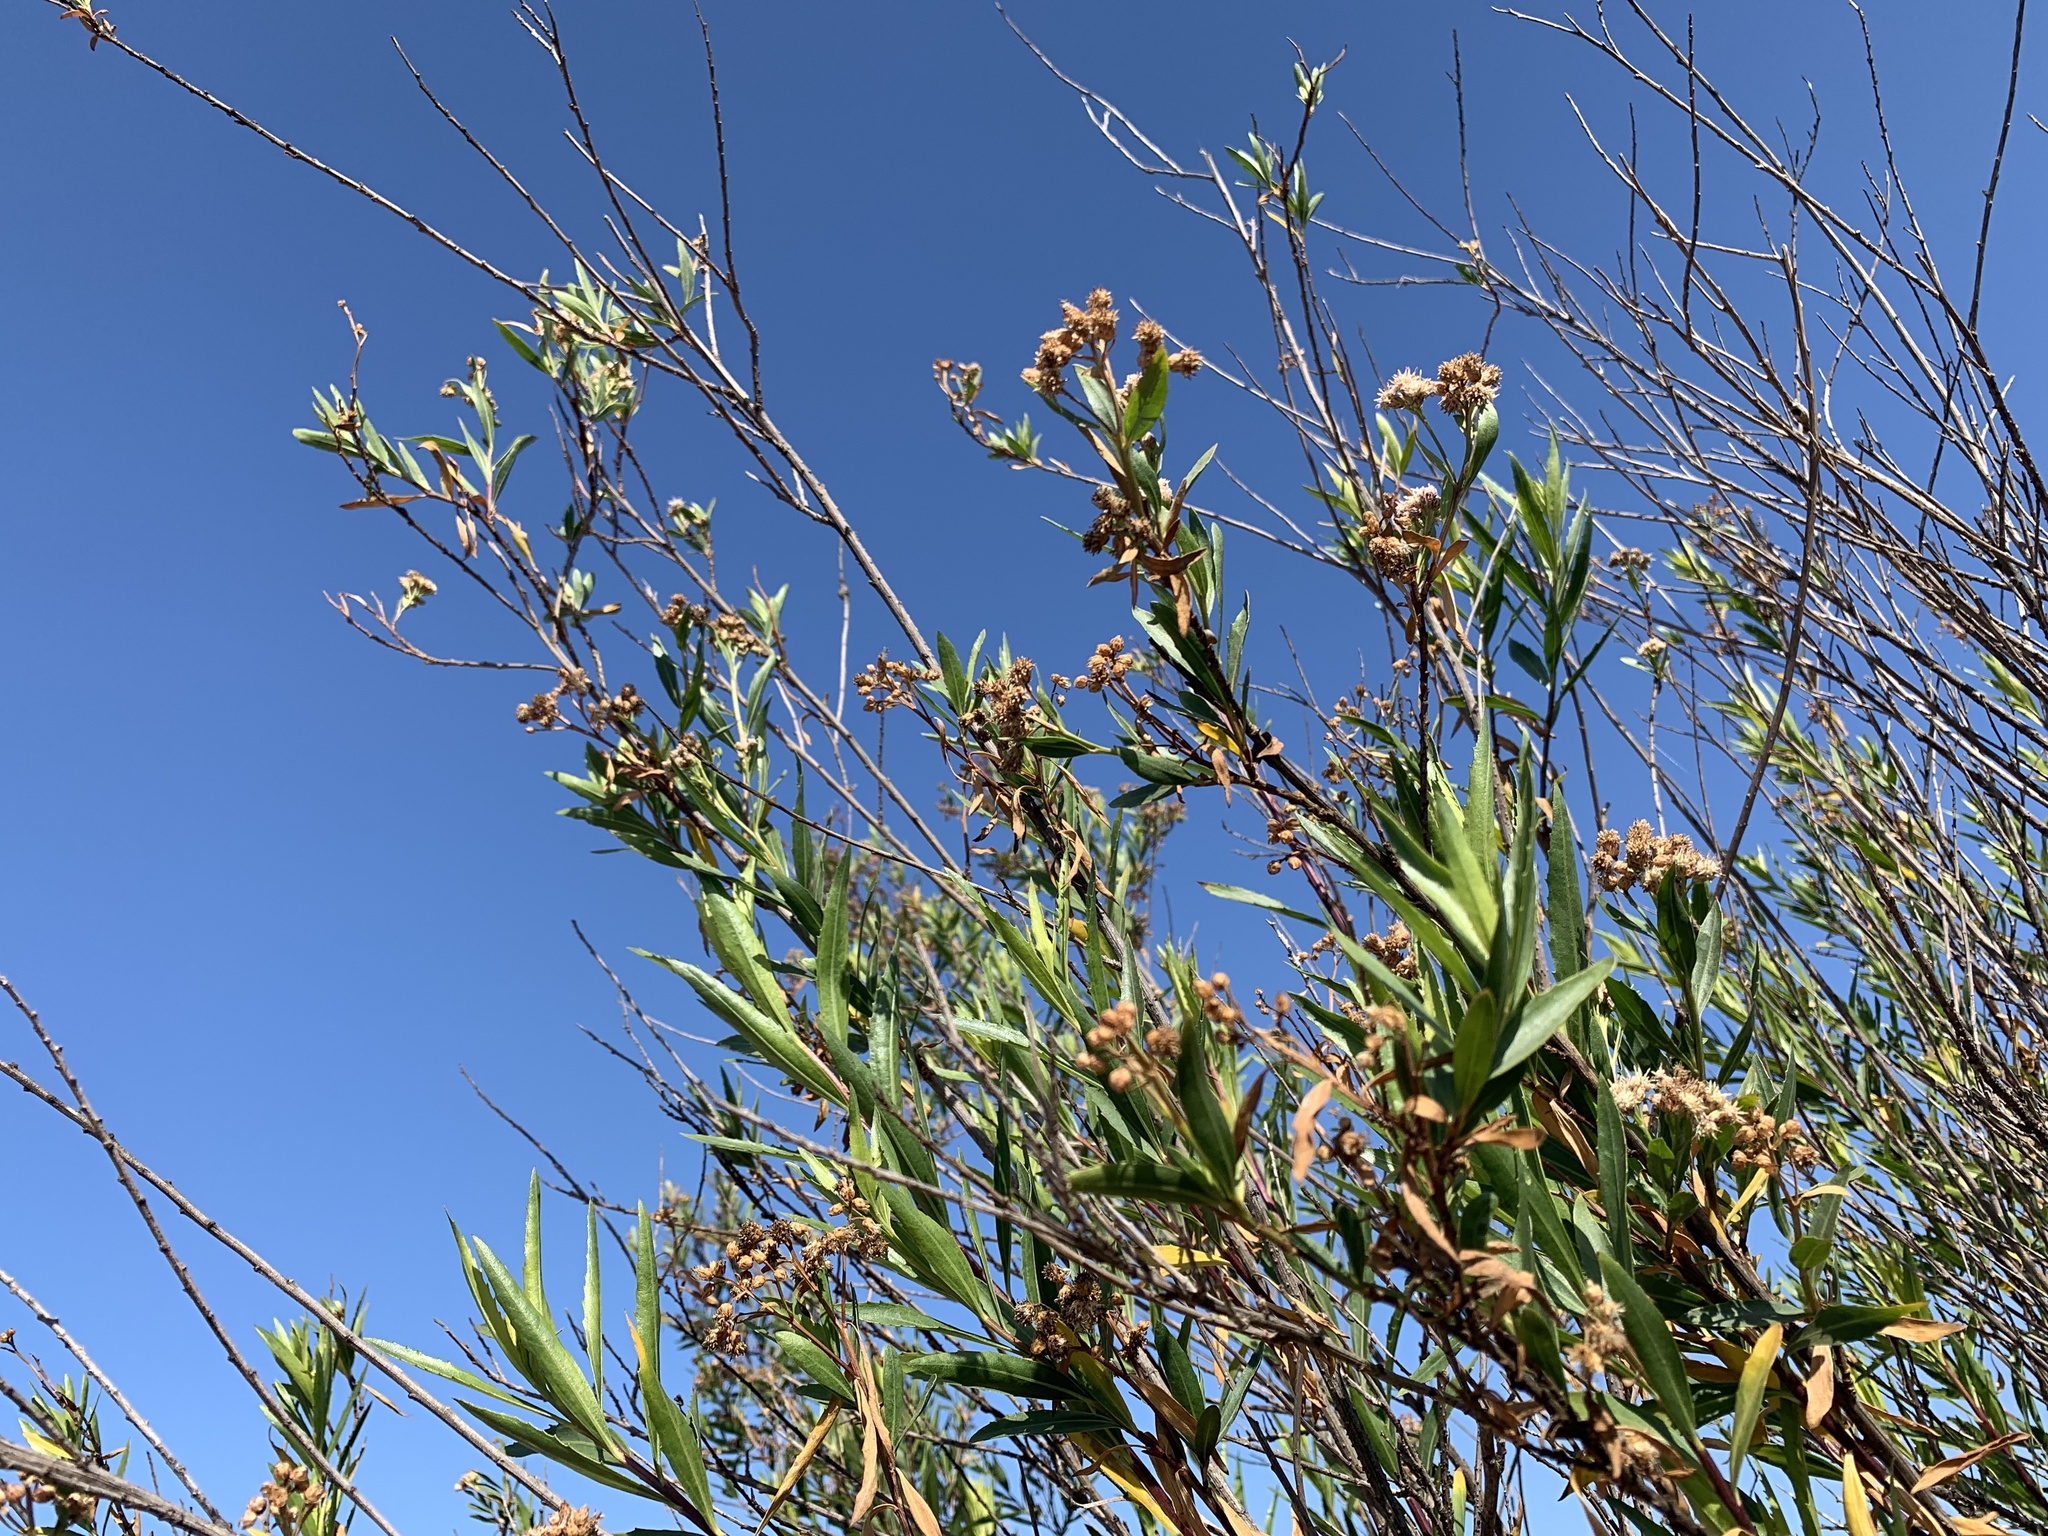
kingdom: Plantae
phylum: Tracheophyta
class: Magnoliopsida
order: Asterales
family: Asteraceae
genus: Baccharis
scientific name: Baccharis salicifolia
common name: Sticky baccharis
